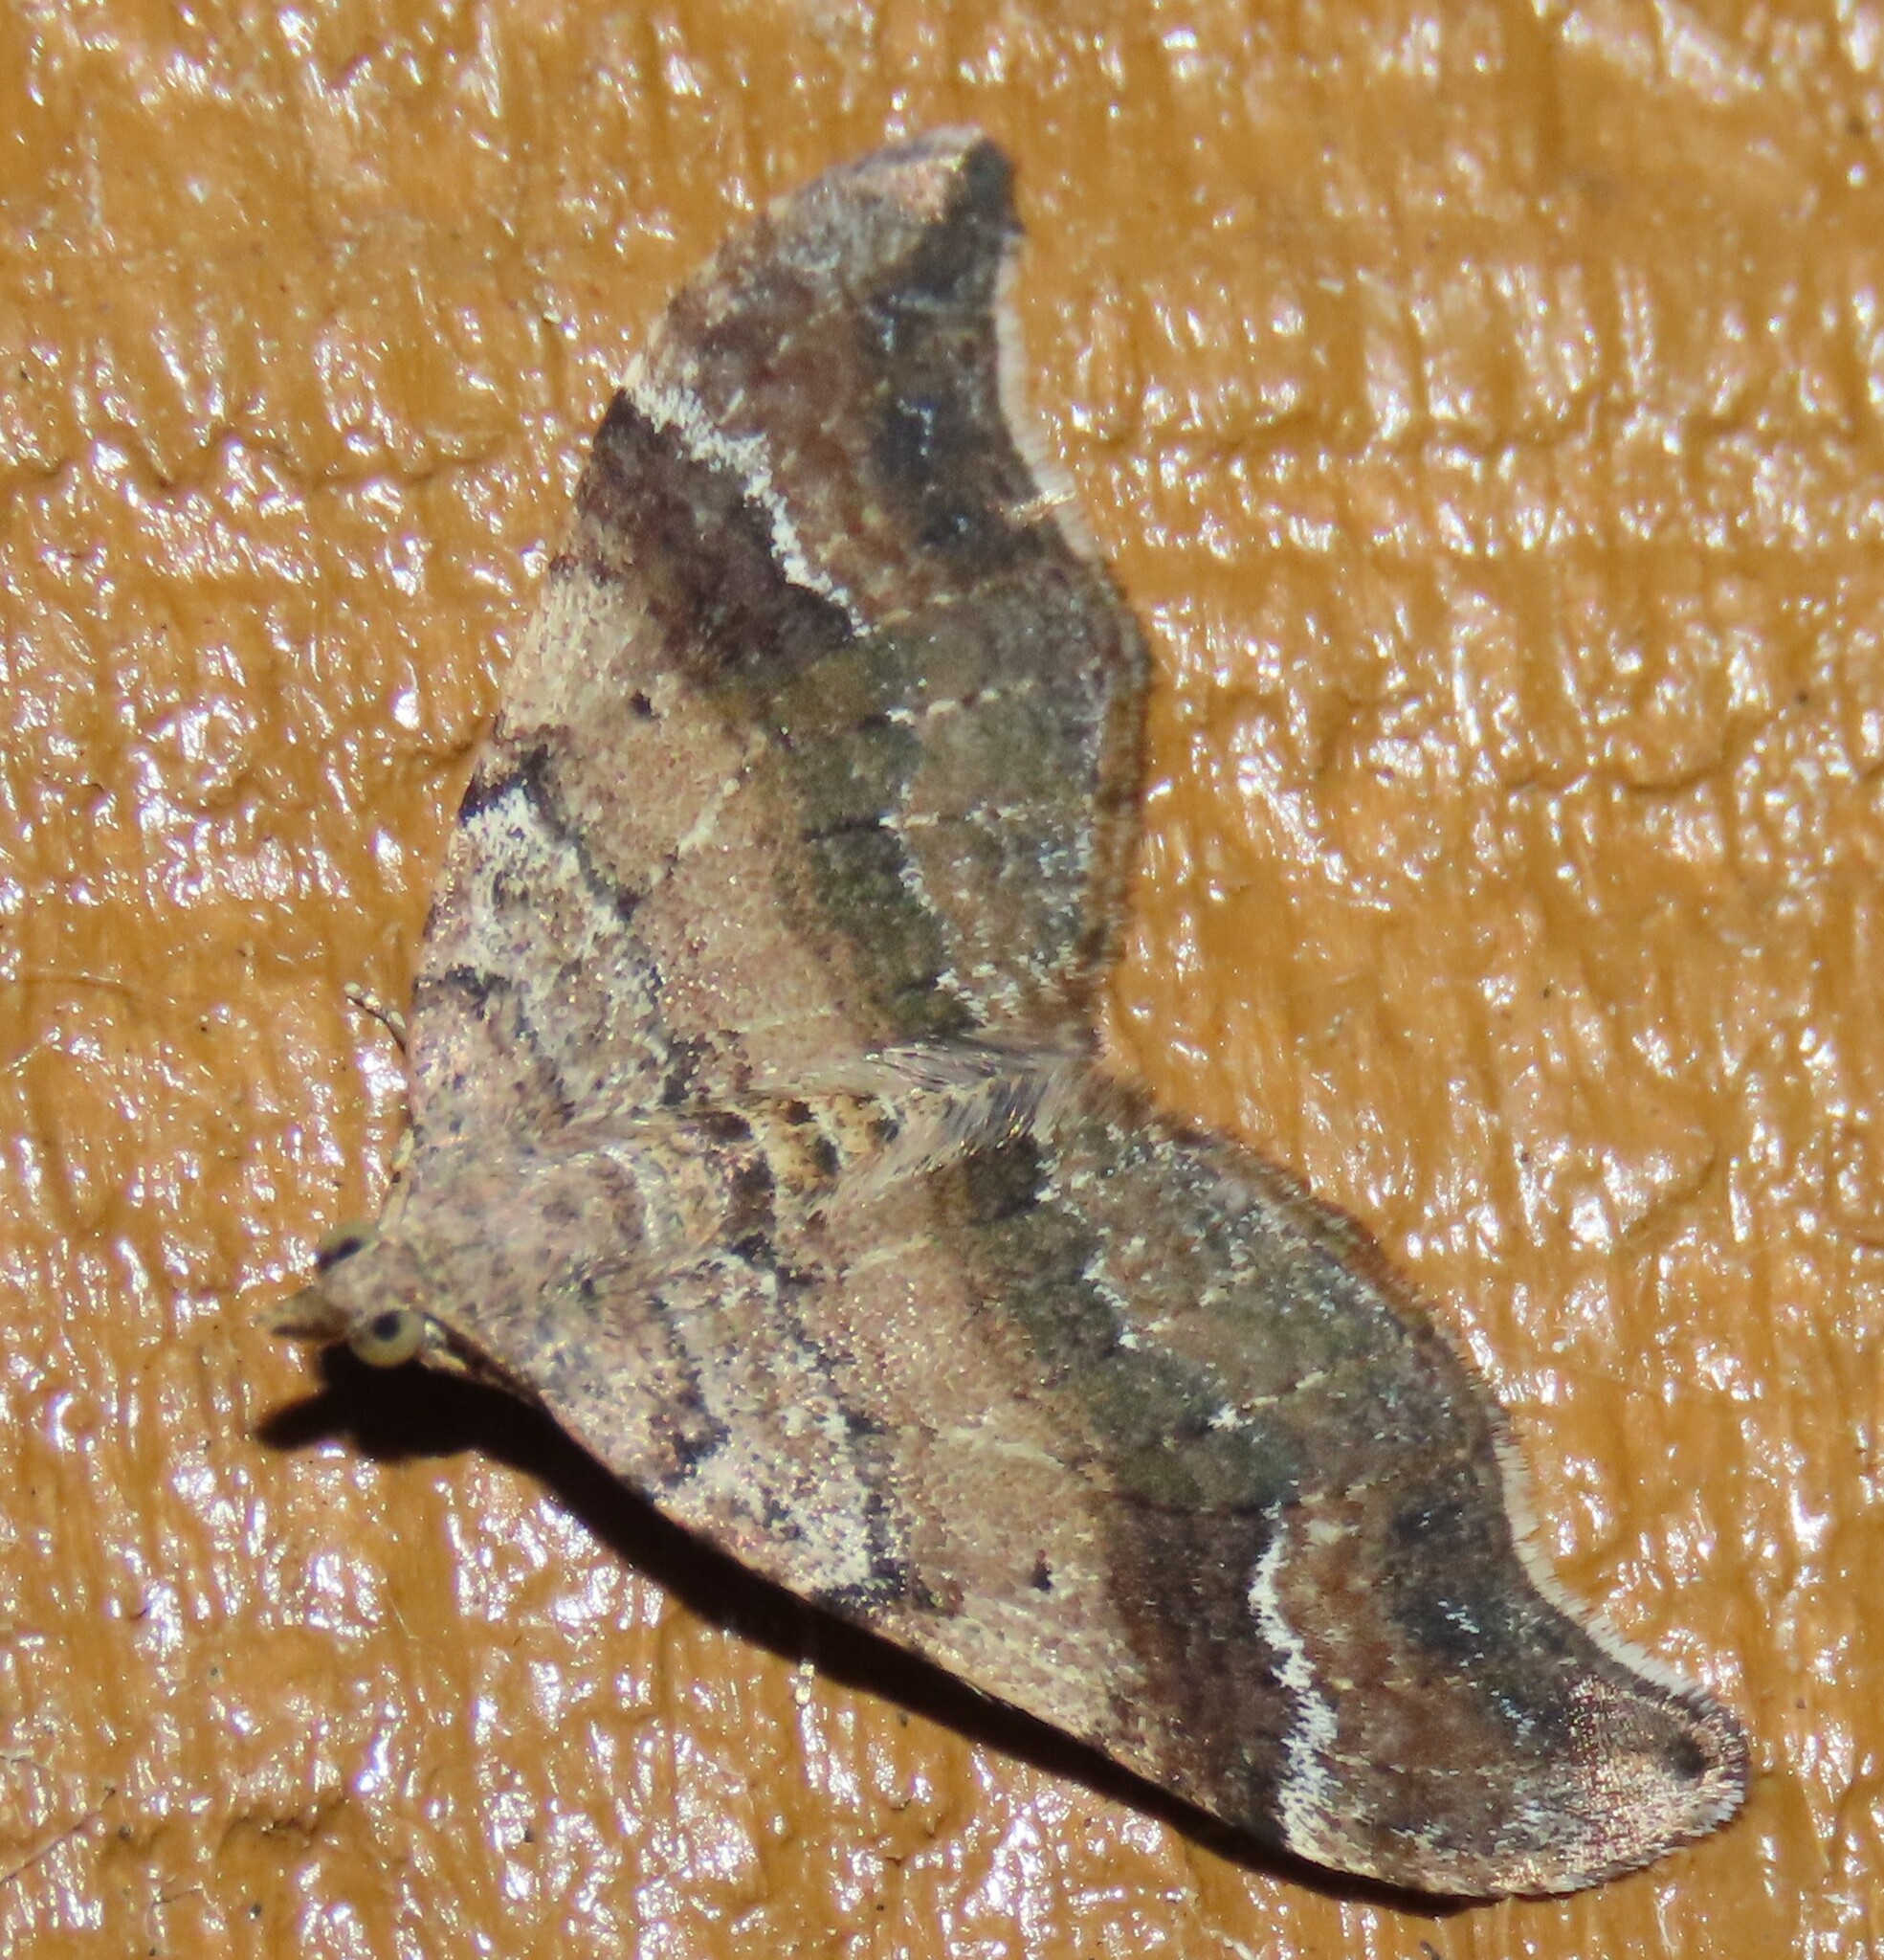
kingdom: Animalia
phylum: Arthropoda
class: Insecta
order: Lepidoptera
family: Geometridae
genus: Homodotis
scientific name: Homodotis megaspilata
